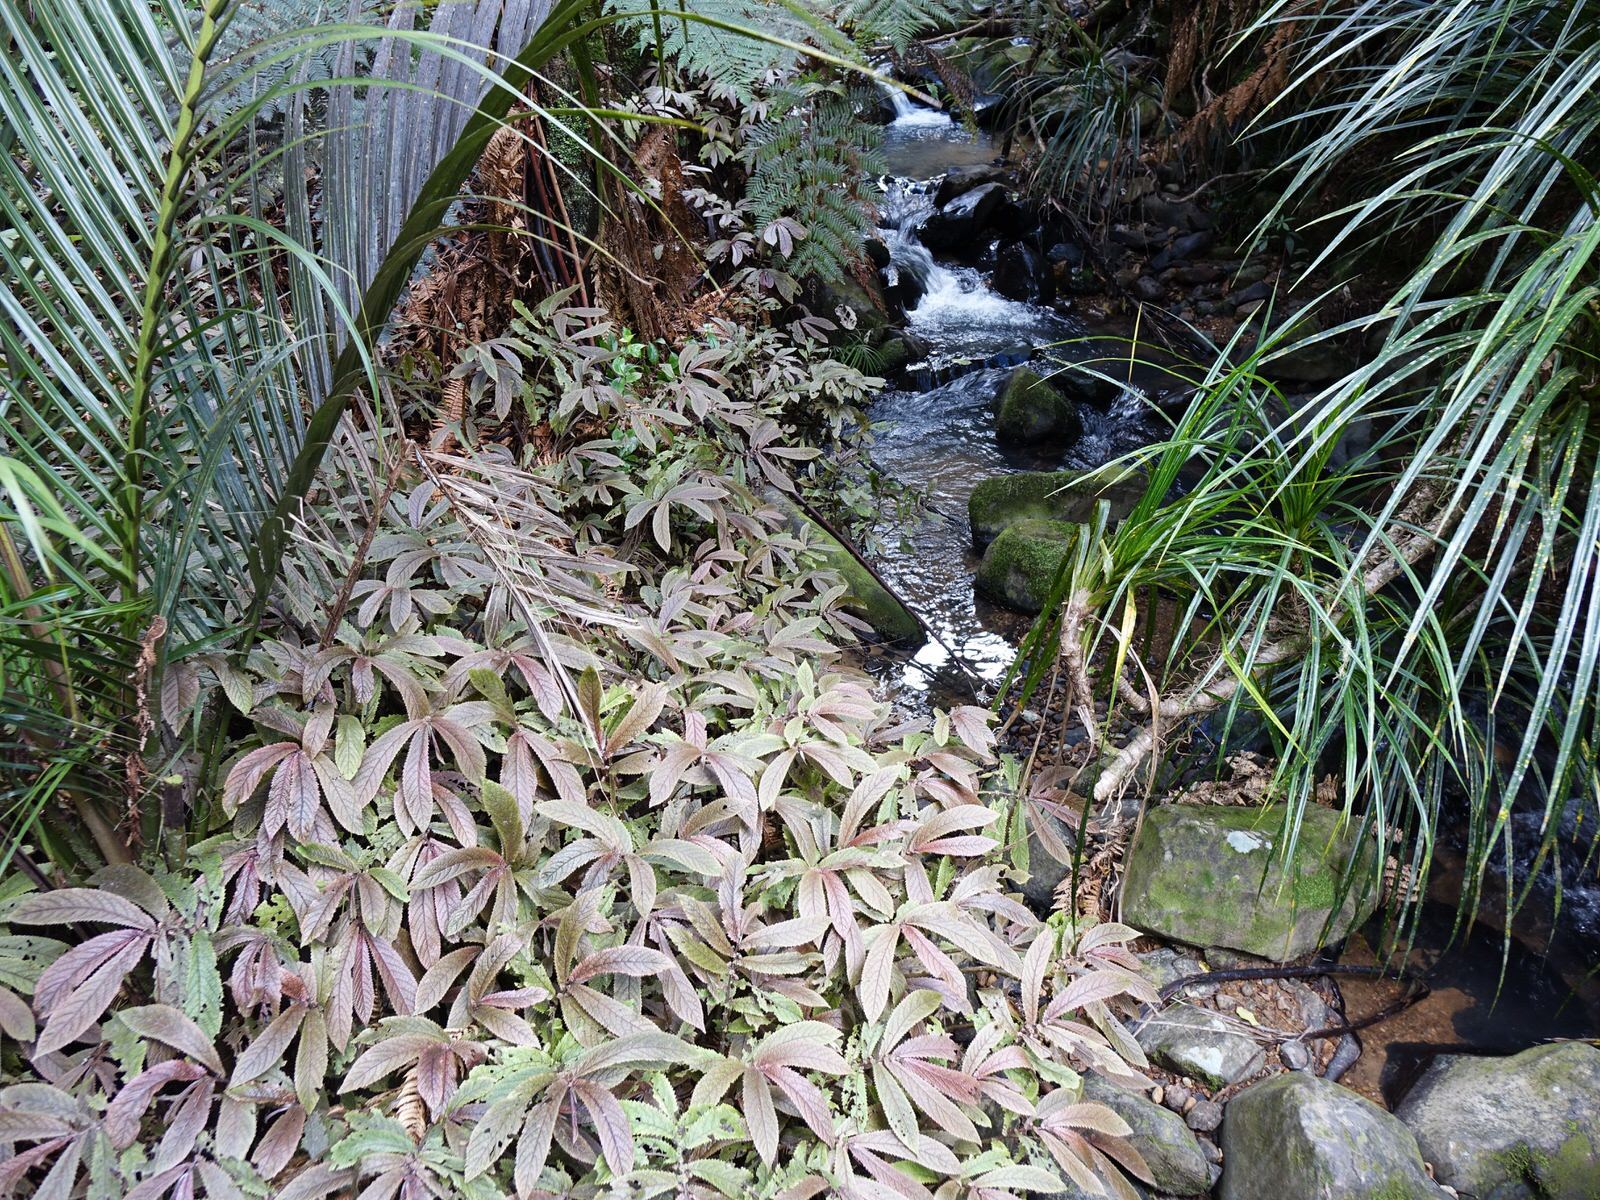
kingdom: Plantae
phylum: Tracheophyta
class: Magnoliopsida
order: Rosales
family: Urticaceae
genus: Elatostema
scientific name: Elatostema rugosum
